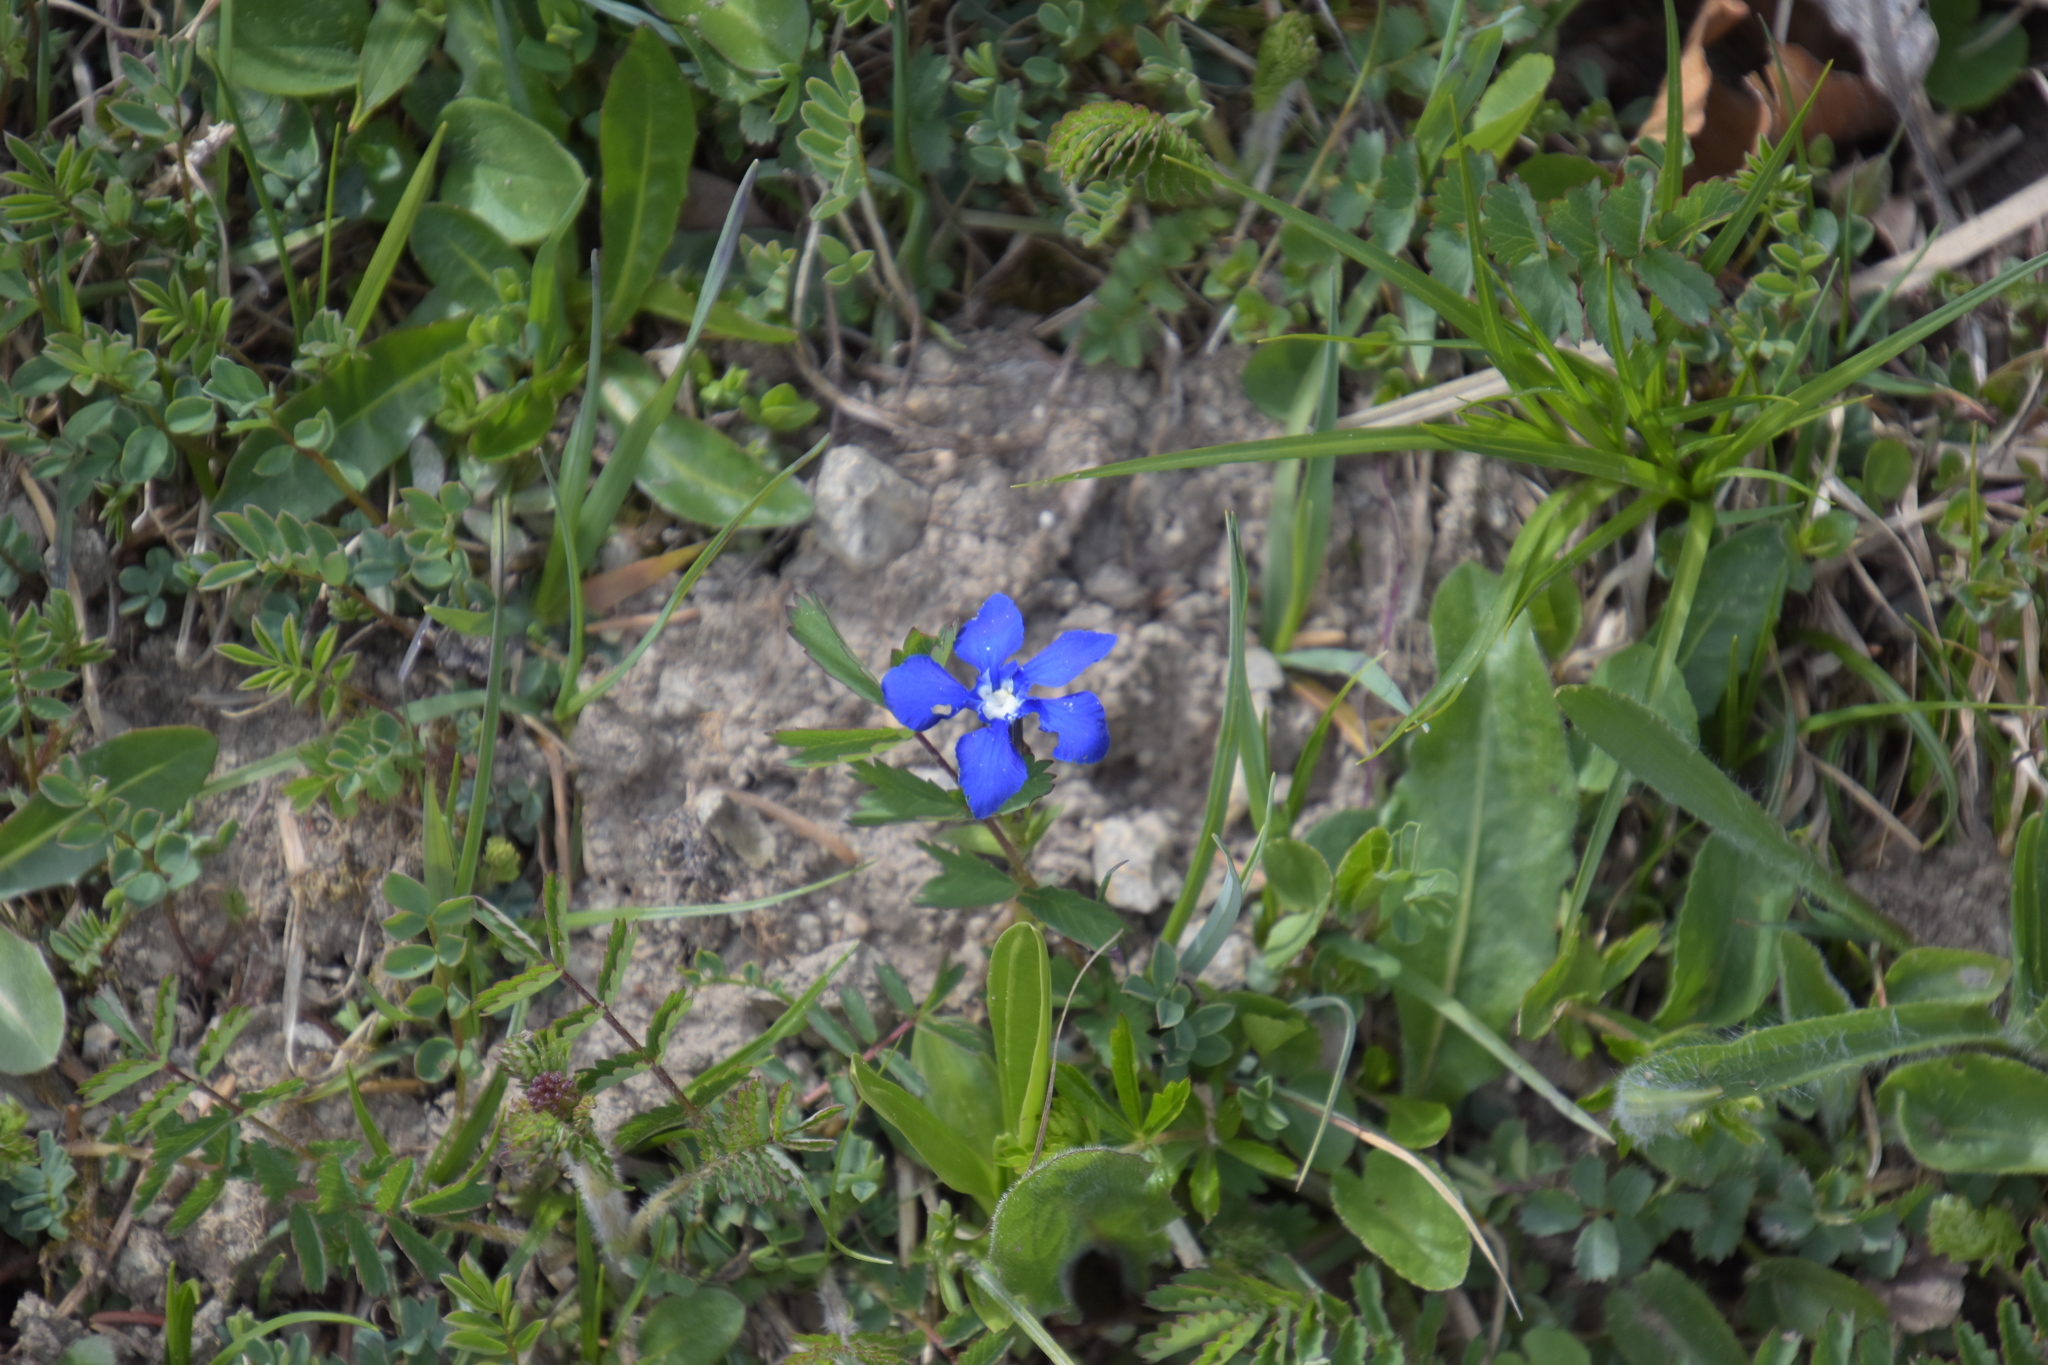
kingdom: Plantae
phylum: Tracheophyta
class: Magnoliopsida
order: Gentianales
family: Gentianaceae
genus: Gentiana
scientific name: Gentiana verna
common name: Spring gentian
